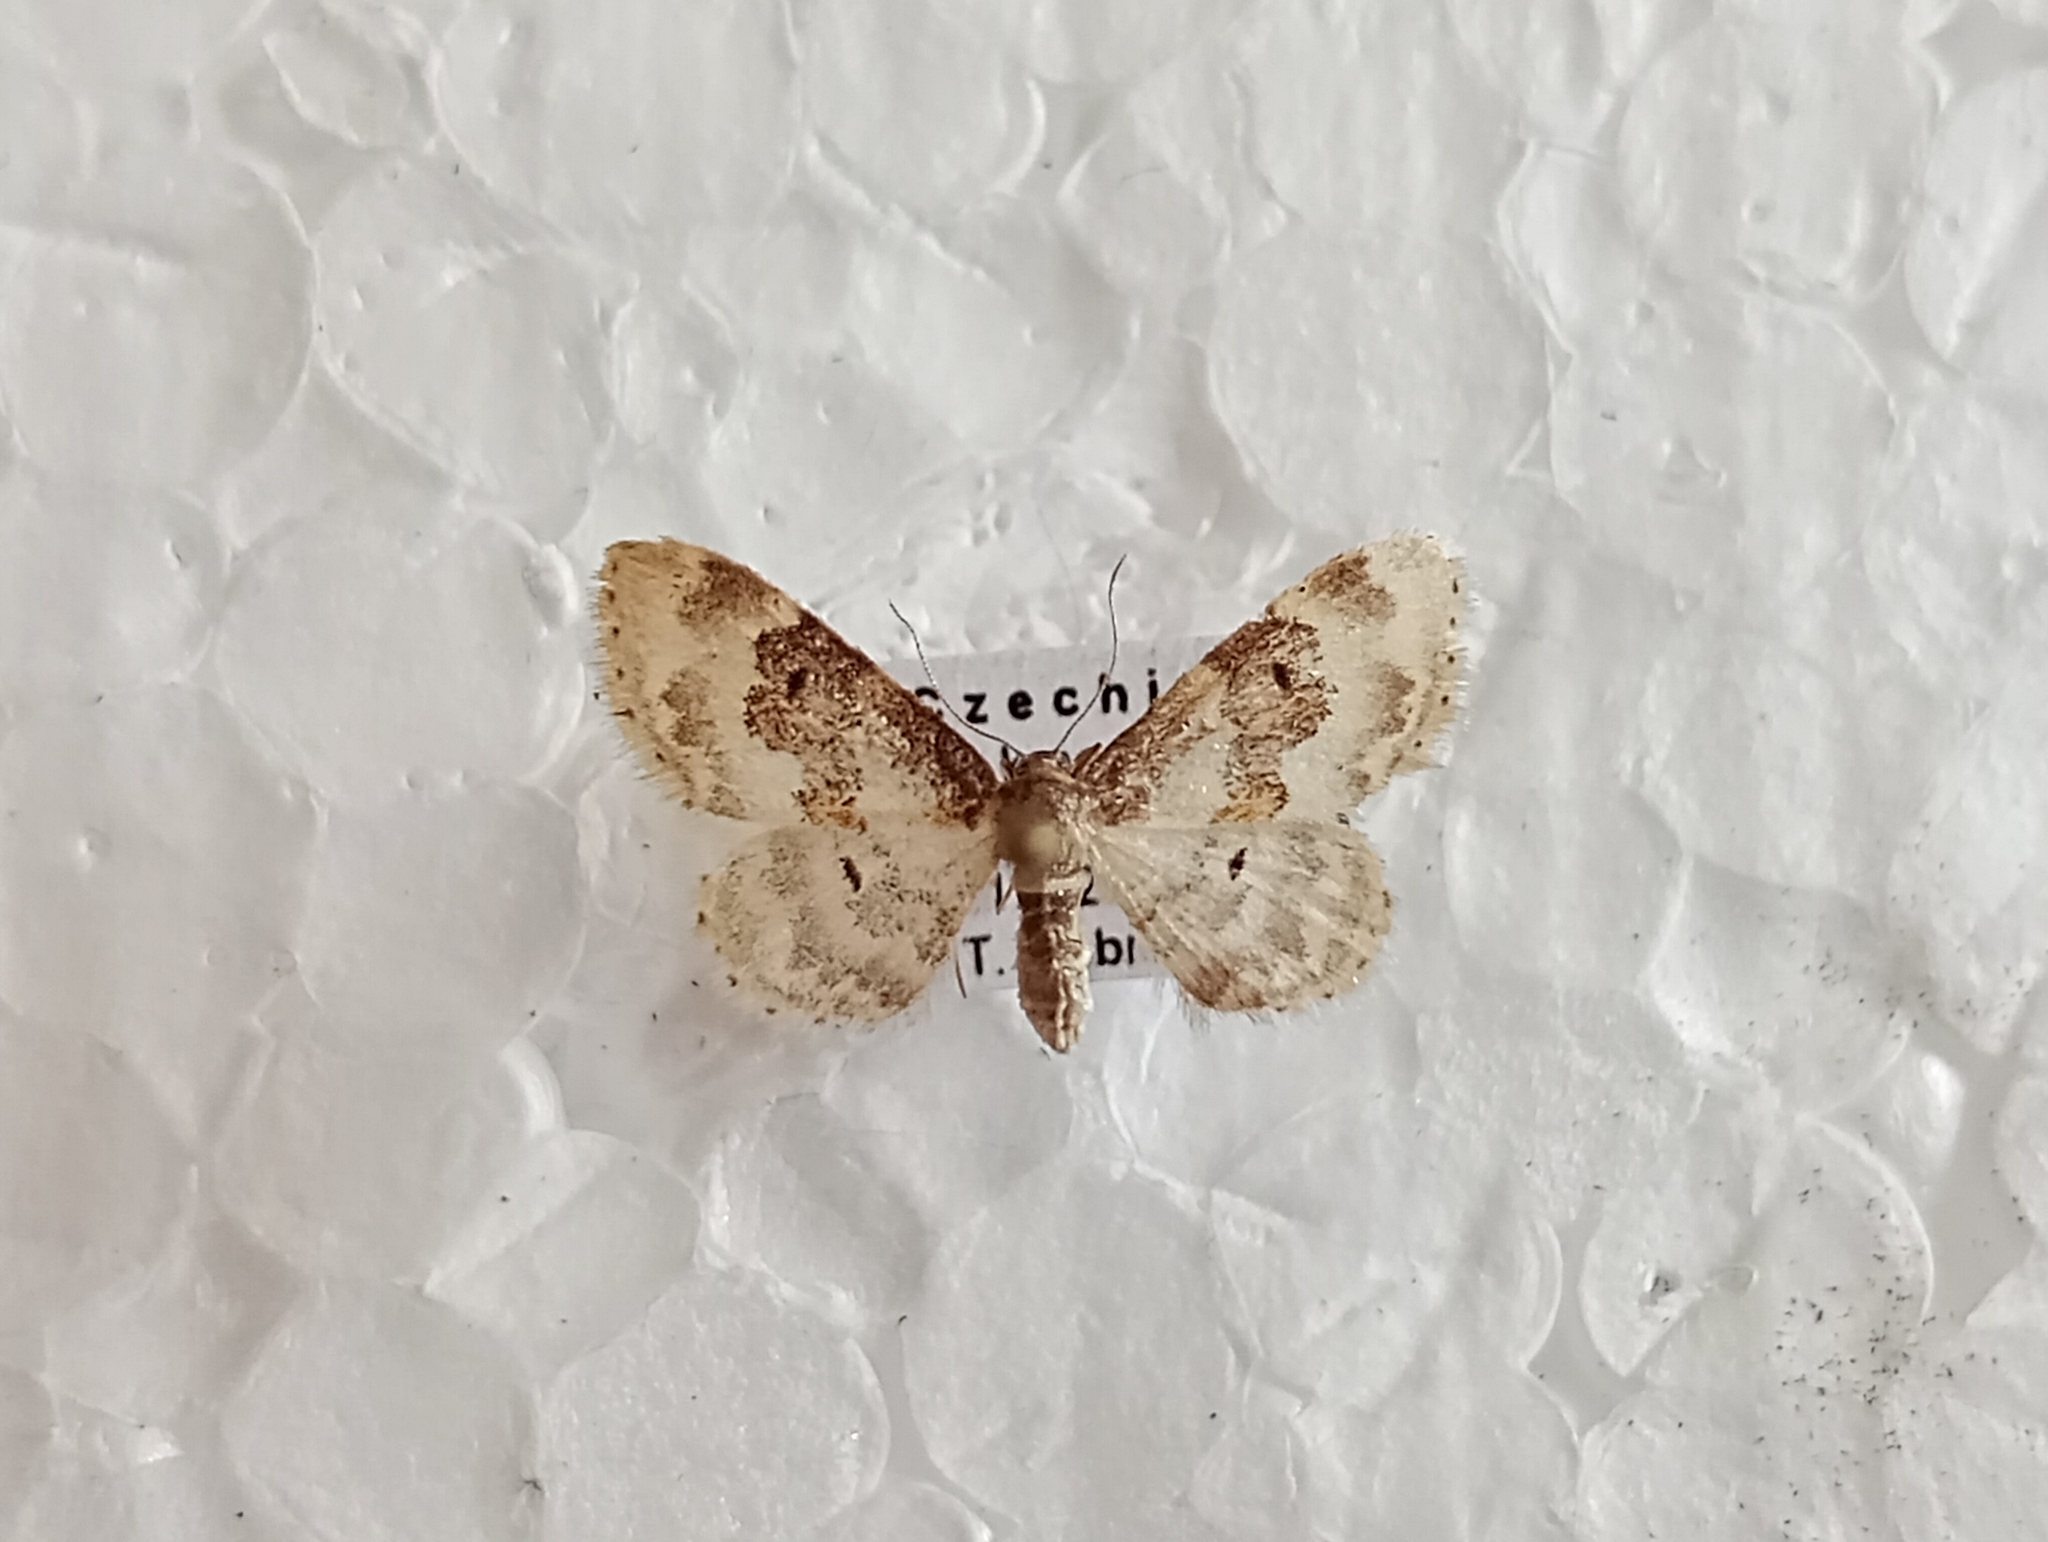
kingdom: Animalia
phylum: Arthropoda
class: Insecta
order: Lepidoptera
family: Geometridae
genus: Idaea
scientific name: Idaea rusticata
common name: Least carpet
